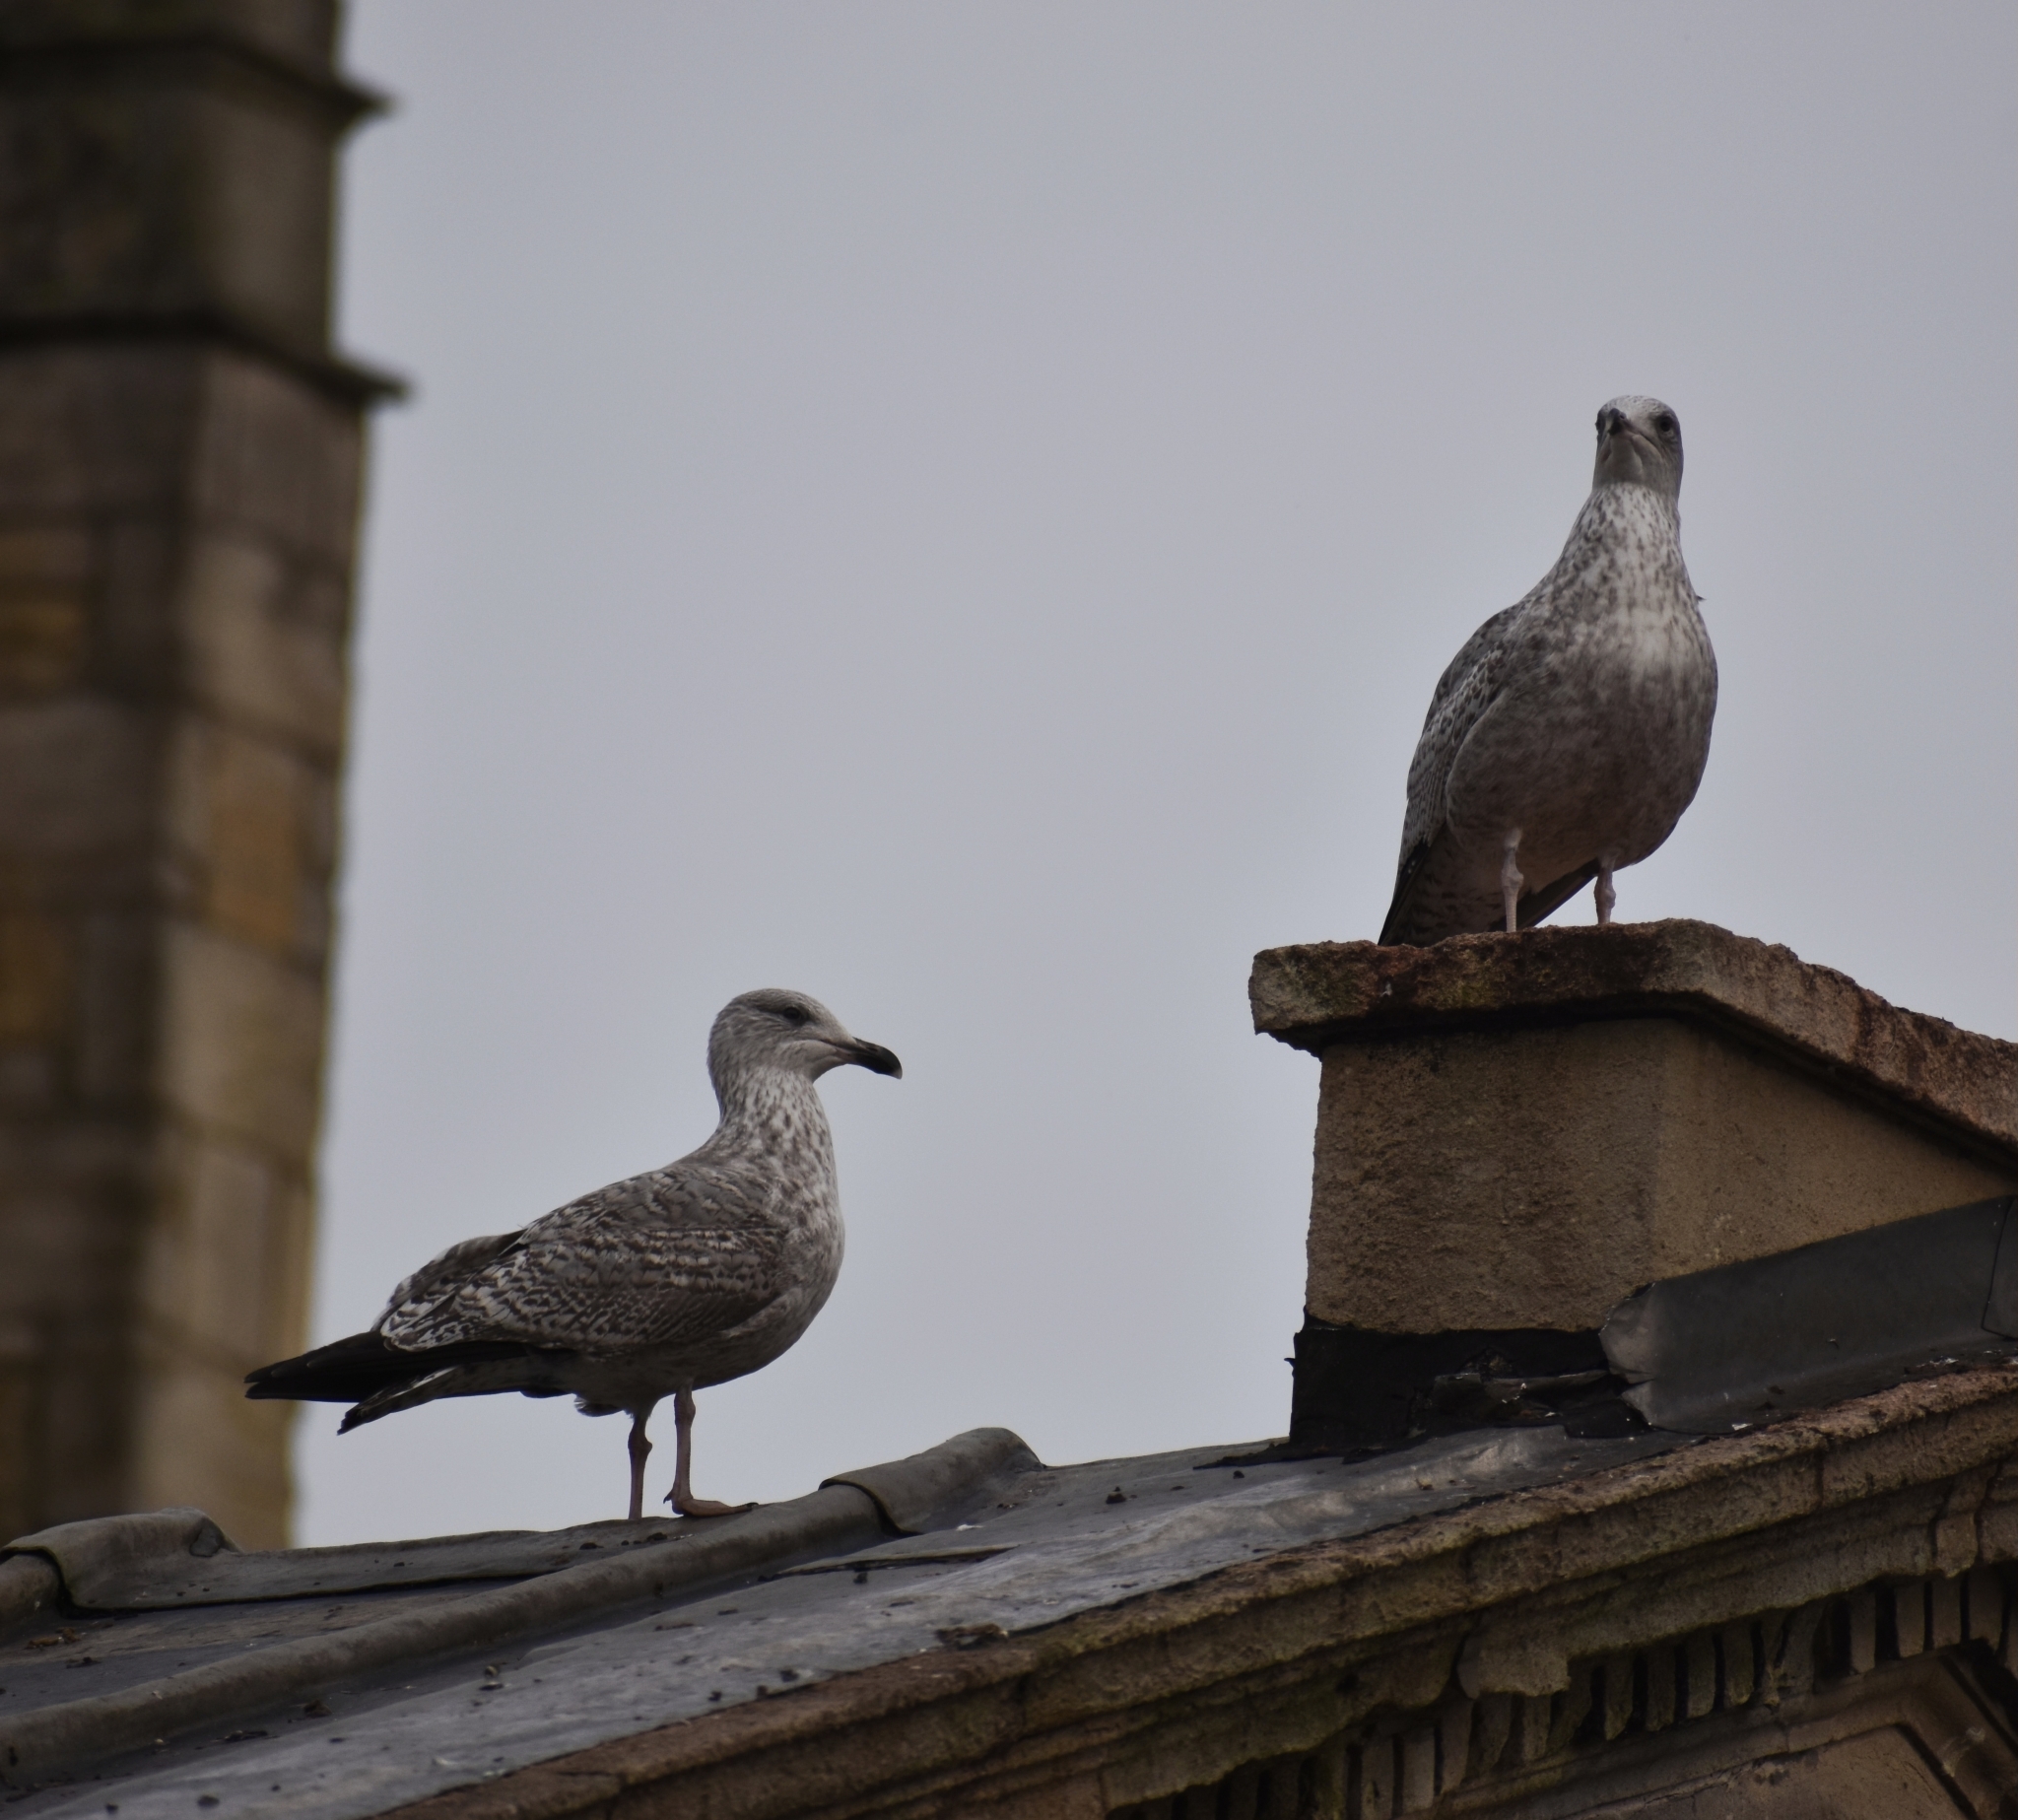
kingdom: Animalia
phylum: Chordata
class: Aves
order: Charadriiformes
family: Laridae
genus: Larus
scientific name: Larus argentatus
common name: Herring gull
